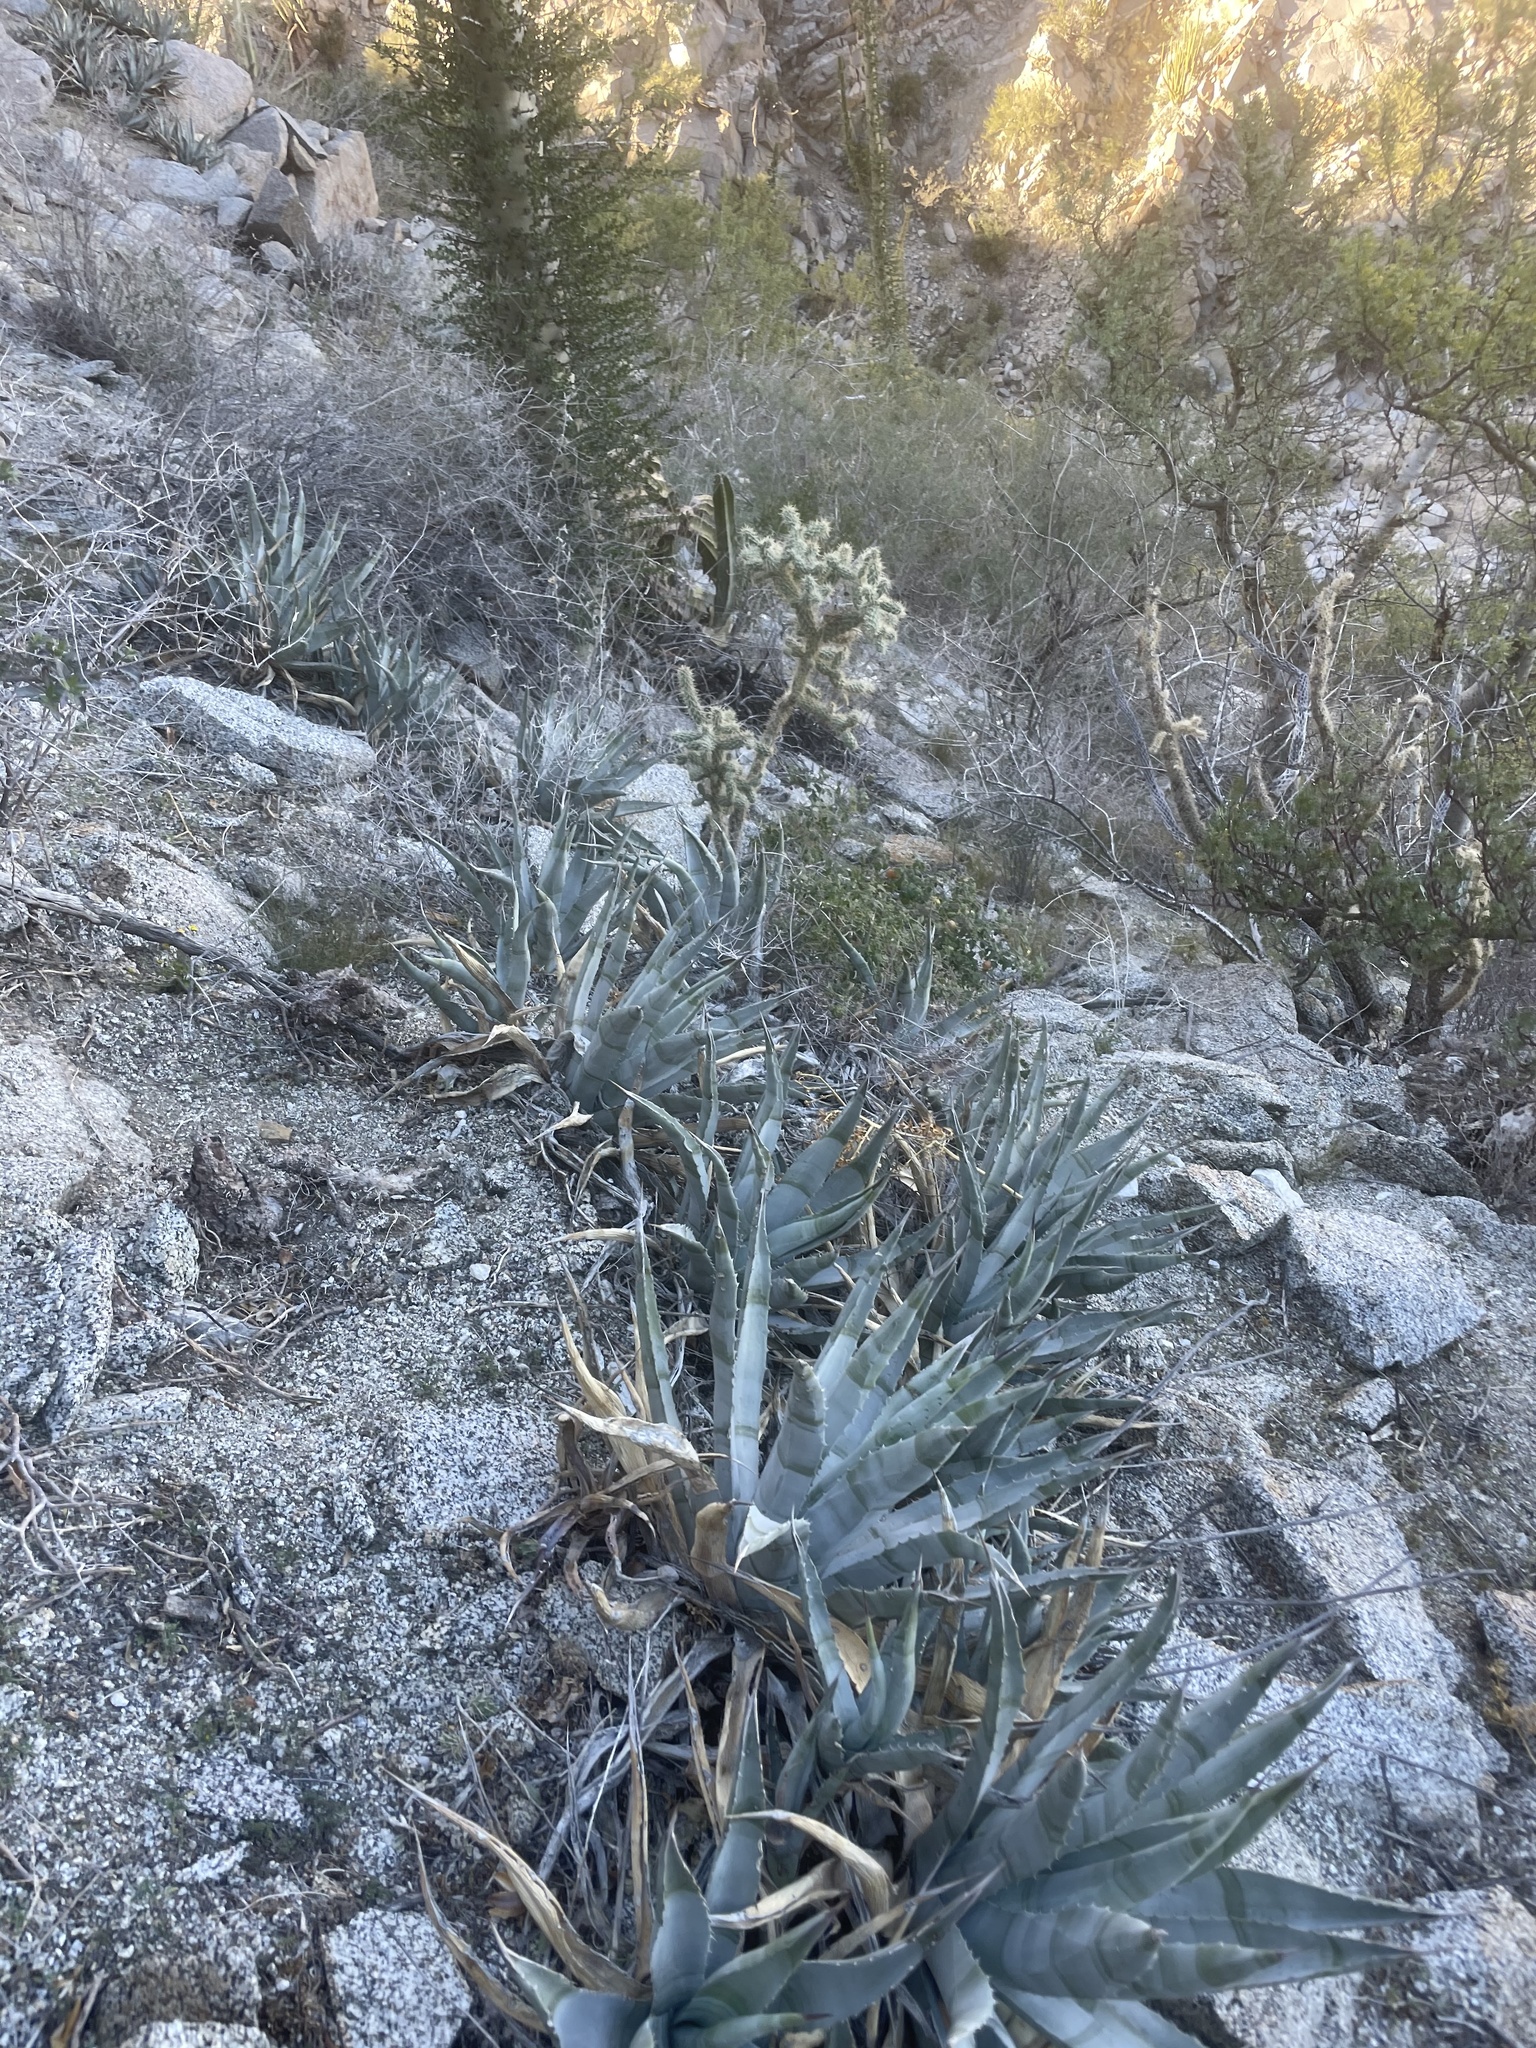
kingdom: Plantae
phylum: Tracheophyta
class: Liliopsida
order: Asparagales
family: Asparagaceae
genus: Agave
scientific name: Agave cerulata
